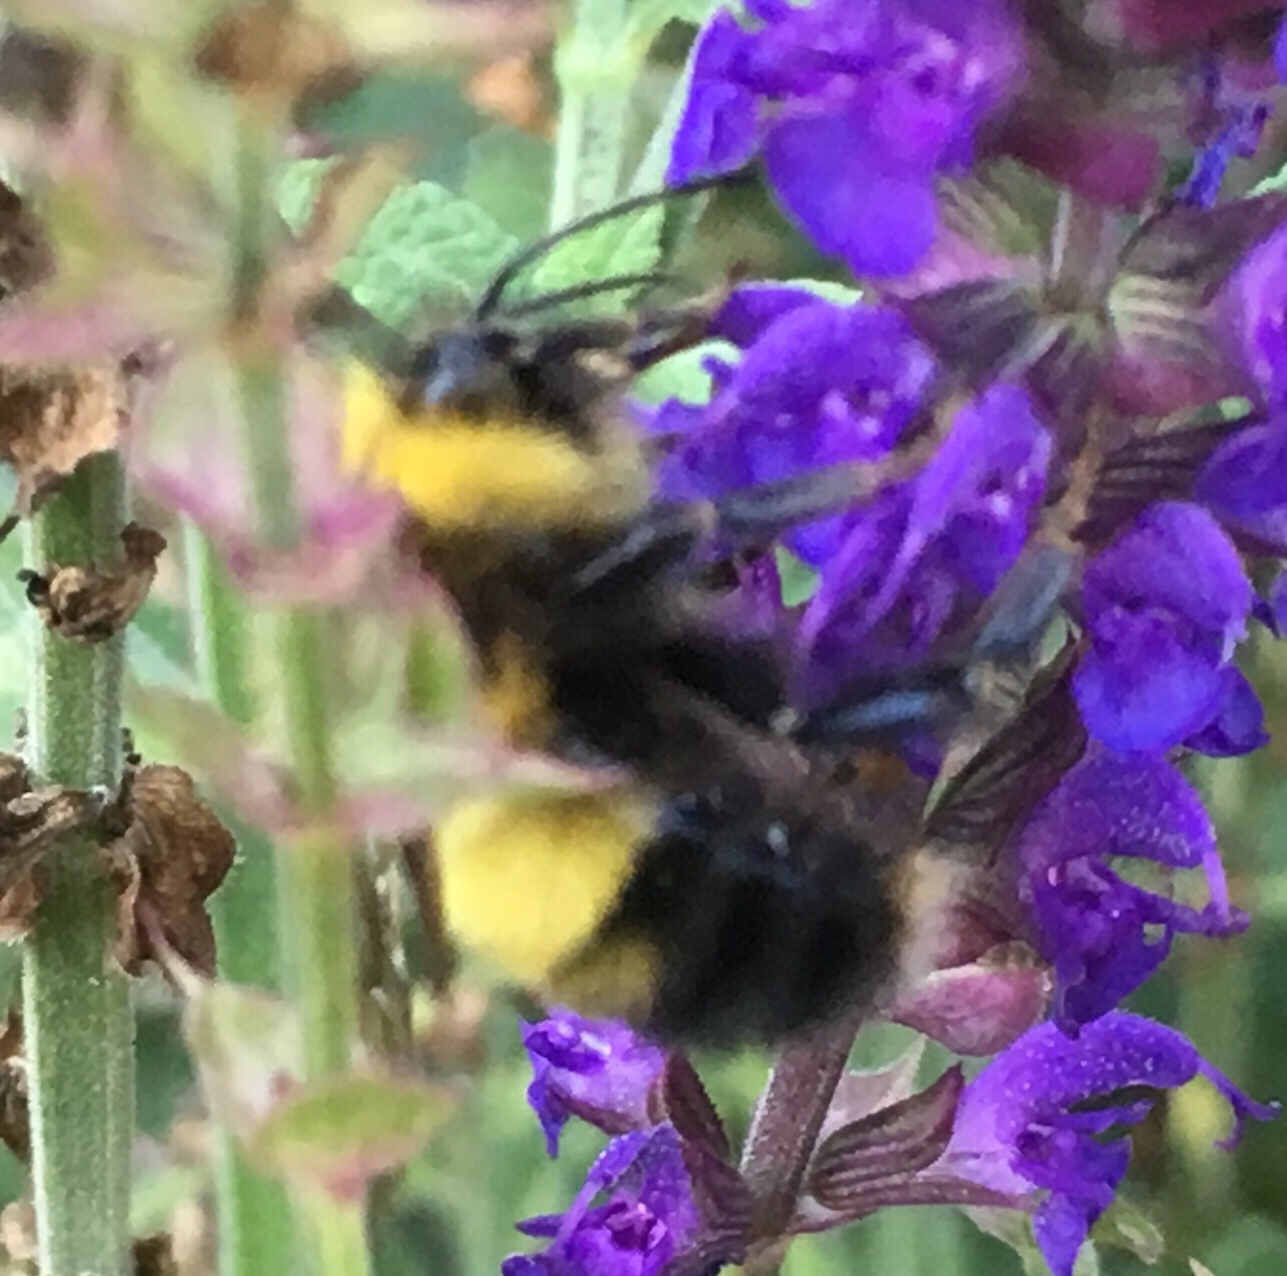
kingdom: Animalia
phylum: Arthropoda
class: Insecta
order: Hymenoptera
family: Apidae
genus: Bombus
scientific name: Bombus perplexus
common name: Confusing bumble bee
